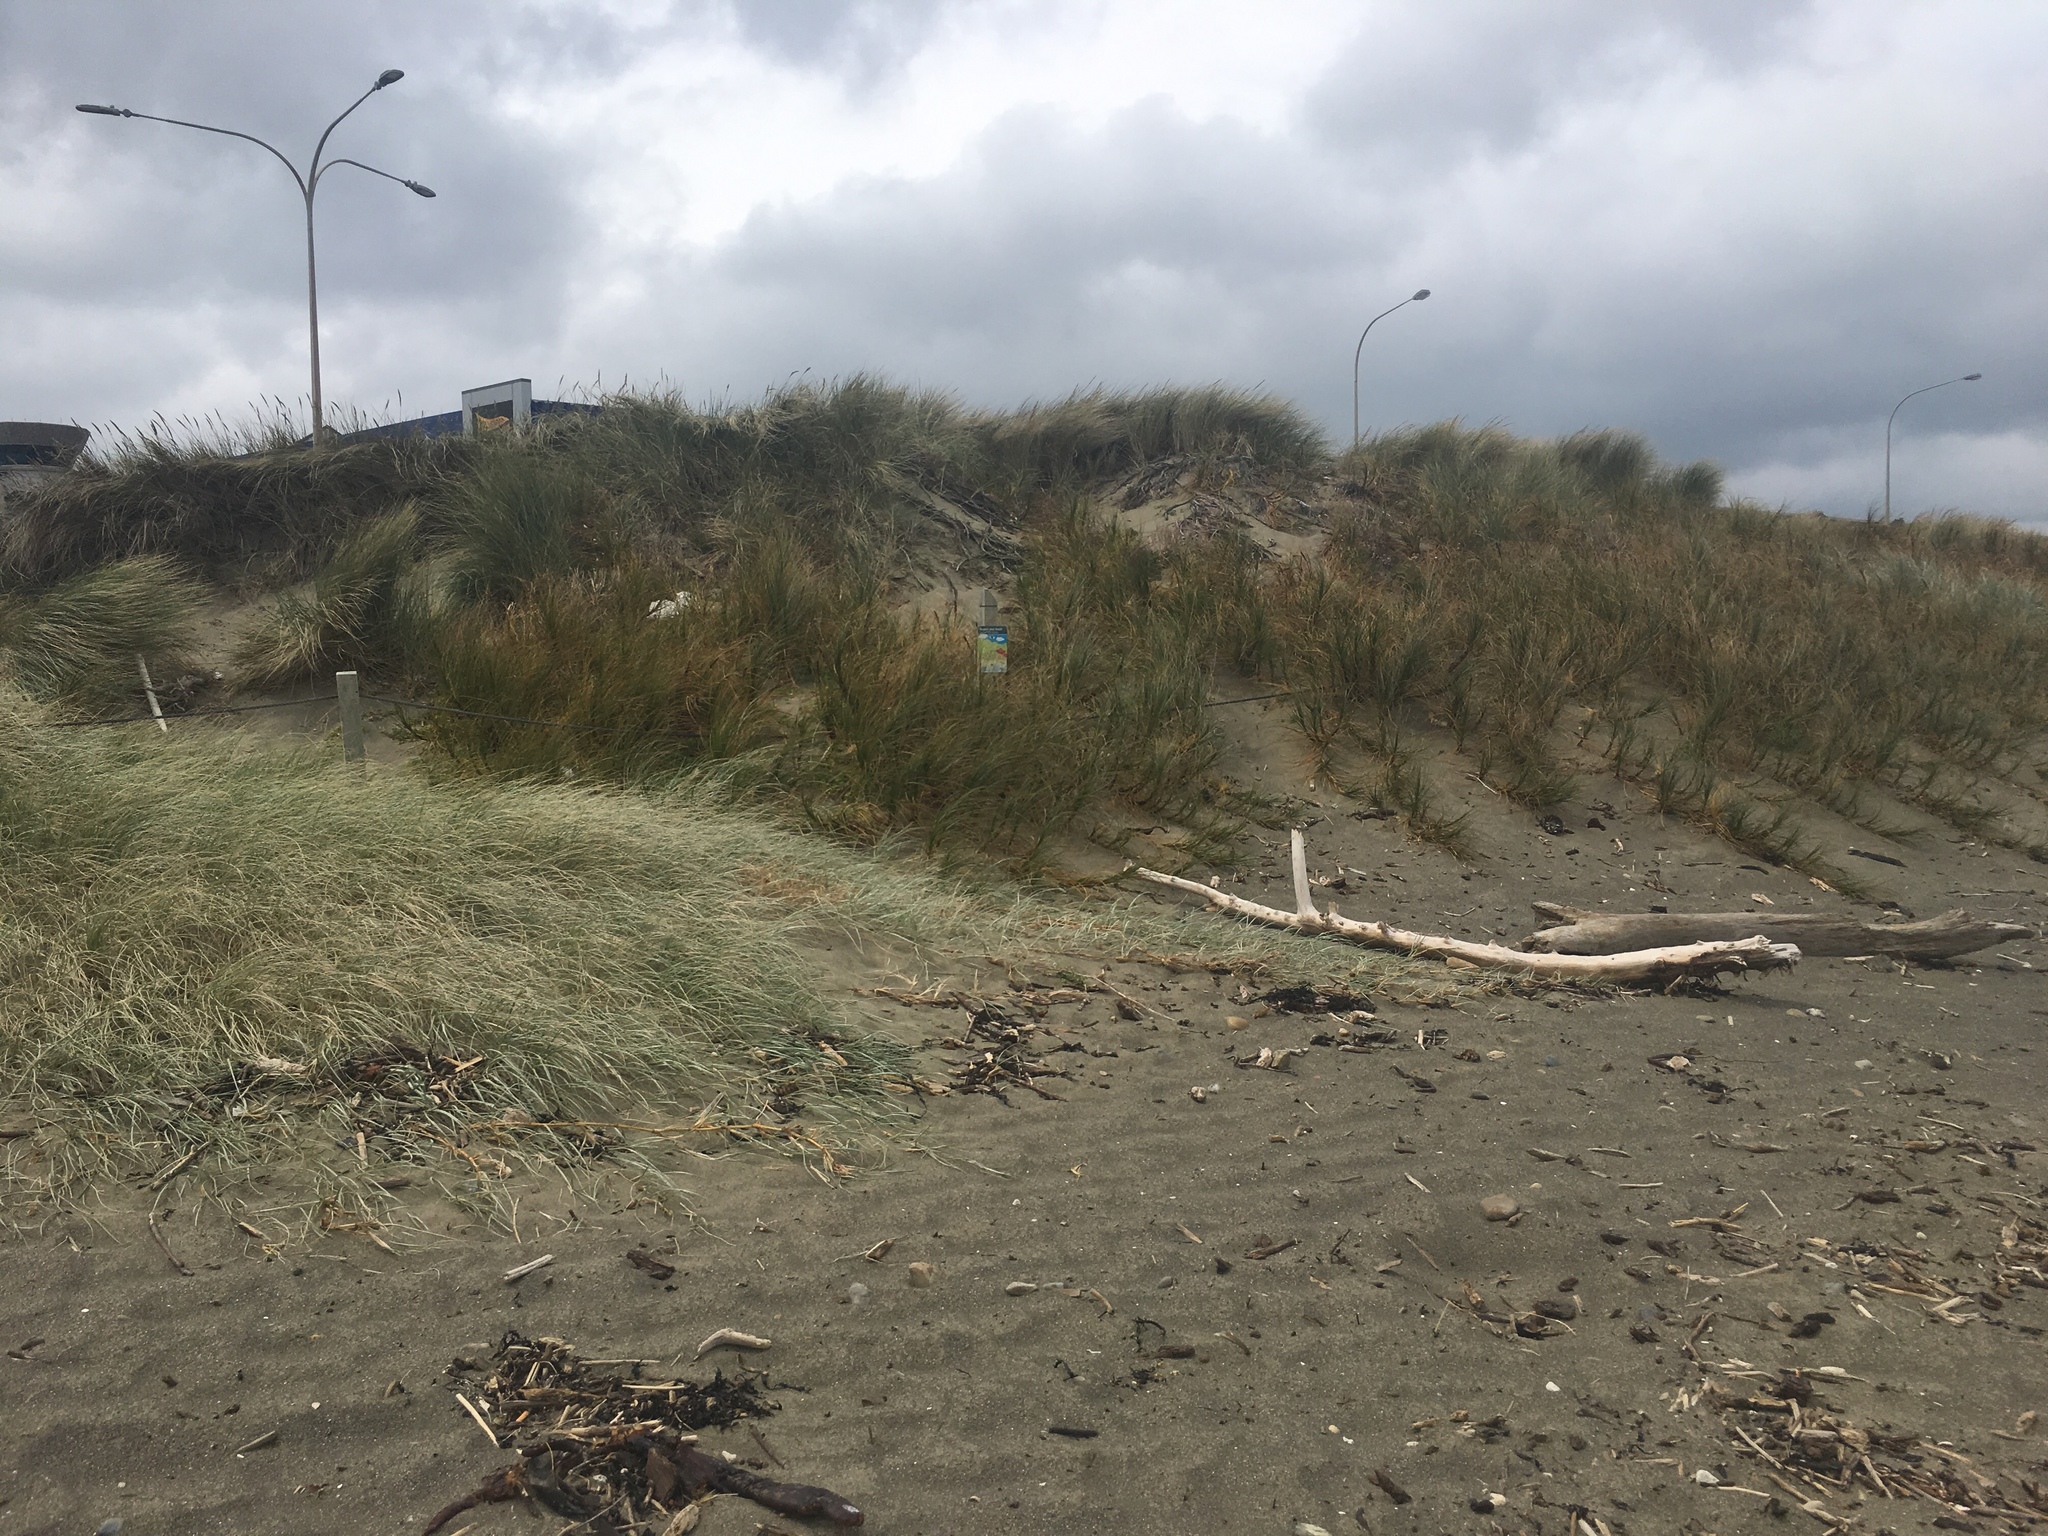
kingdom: Plantae
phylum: Tracheophyta
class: Liliopsida
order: Poales
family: Poaceae
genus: Spinifex
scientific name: Spinifex sericeus
